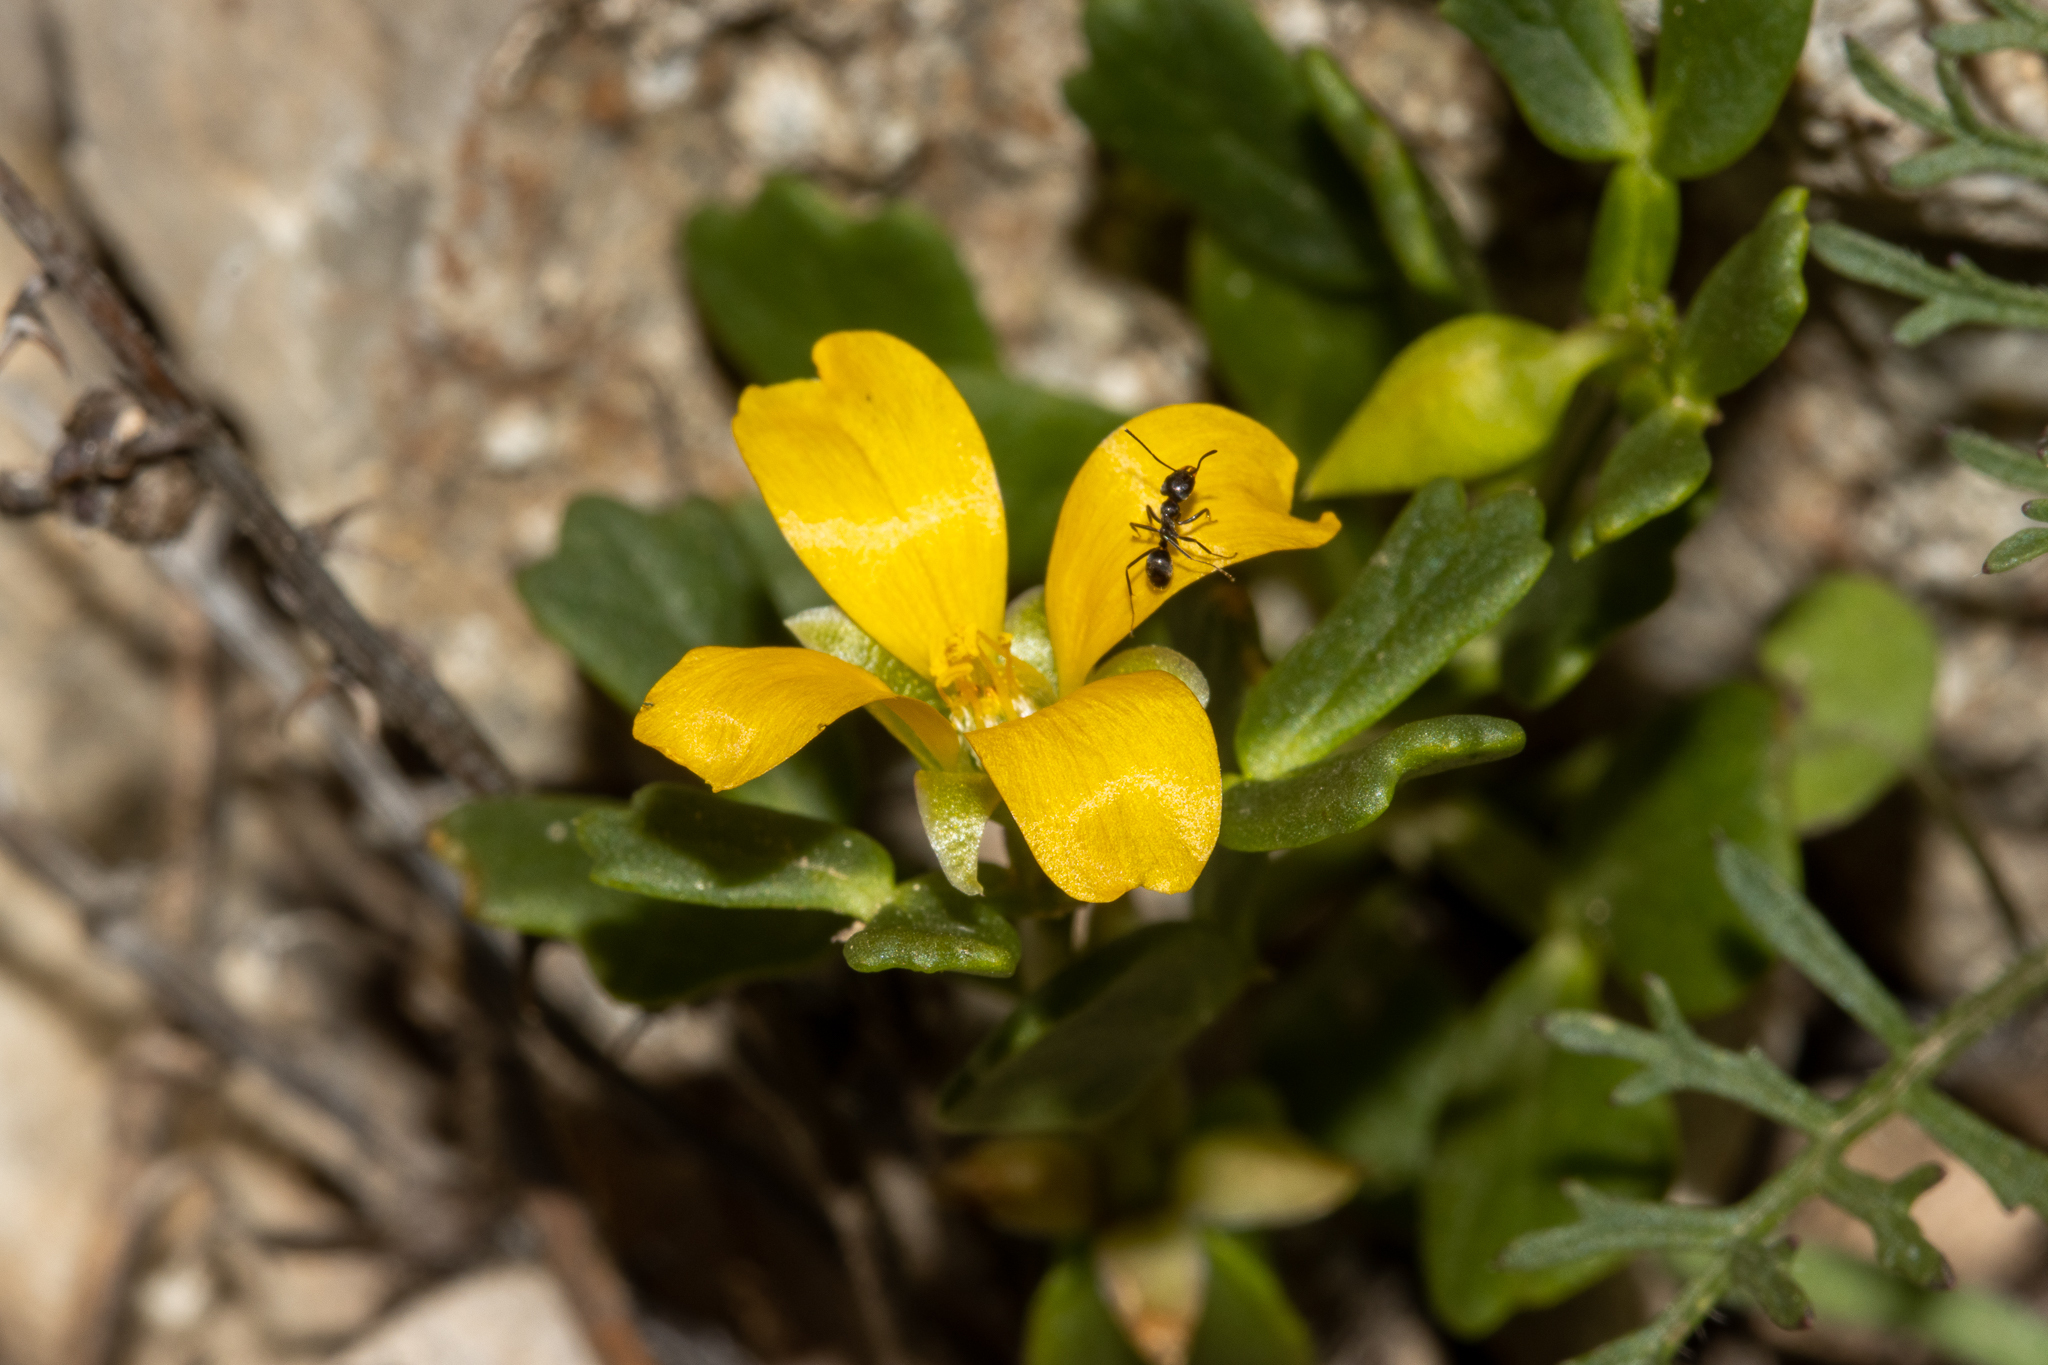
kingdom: Plantae
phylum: Tracheophyta
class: Magnoliopsida
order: Zygophyllales
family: Zygophyllaceae
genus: Roepera
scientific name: Roepera crenata
